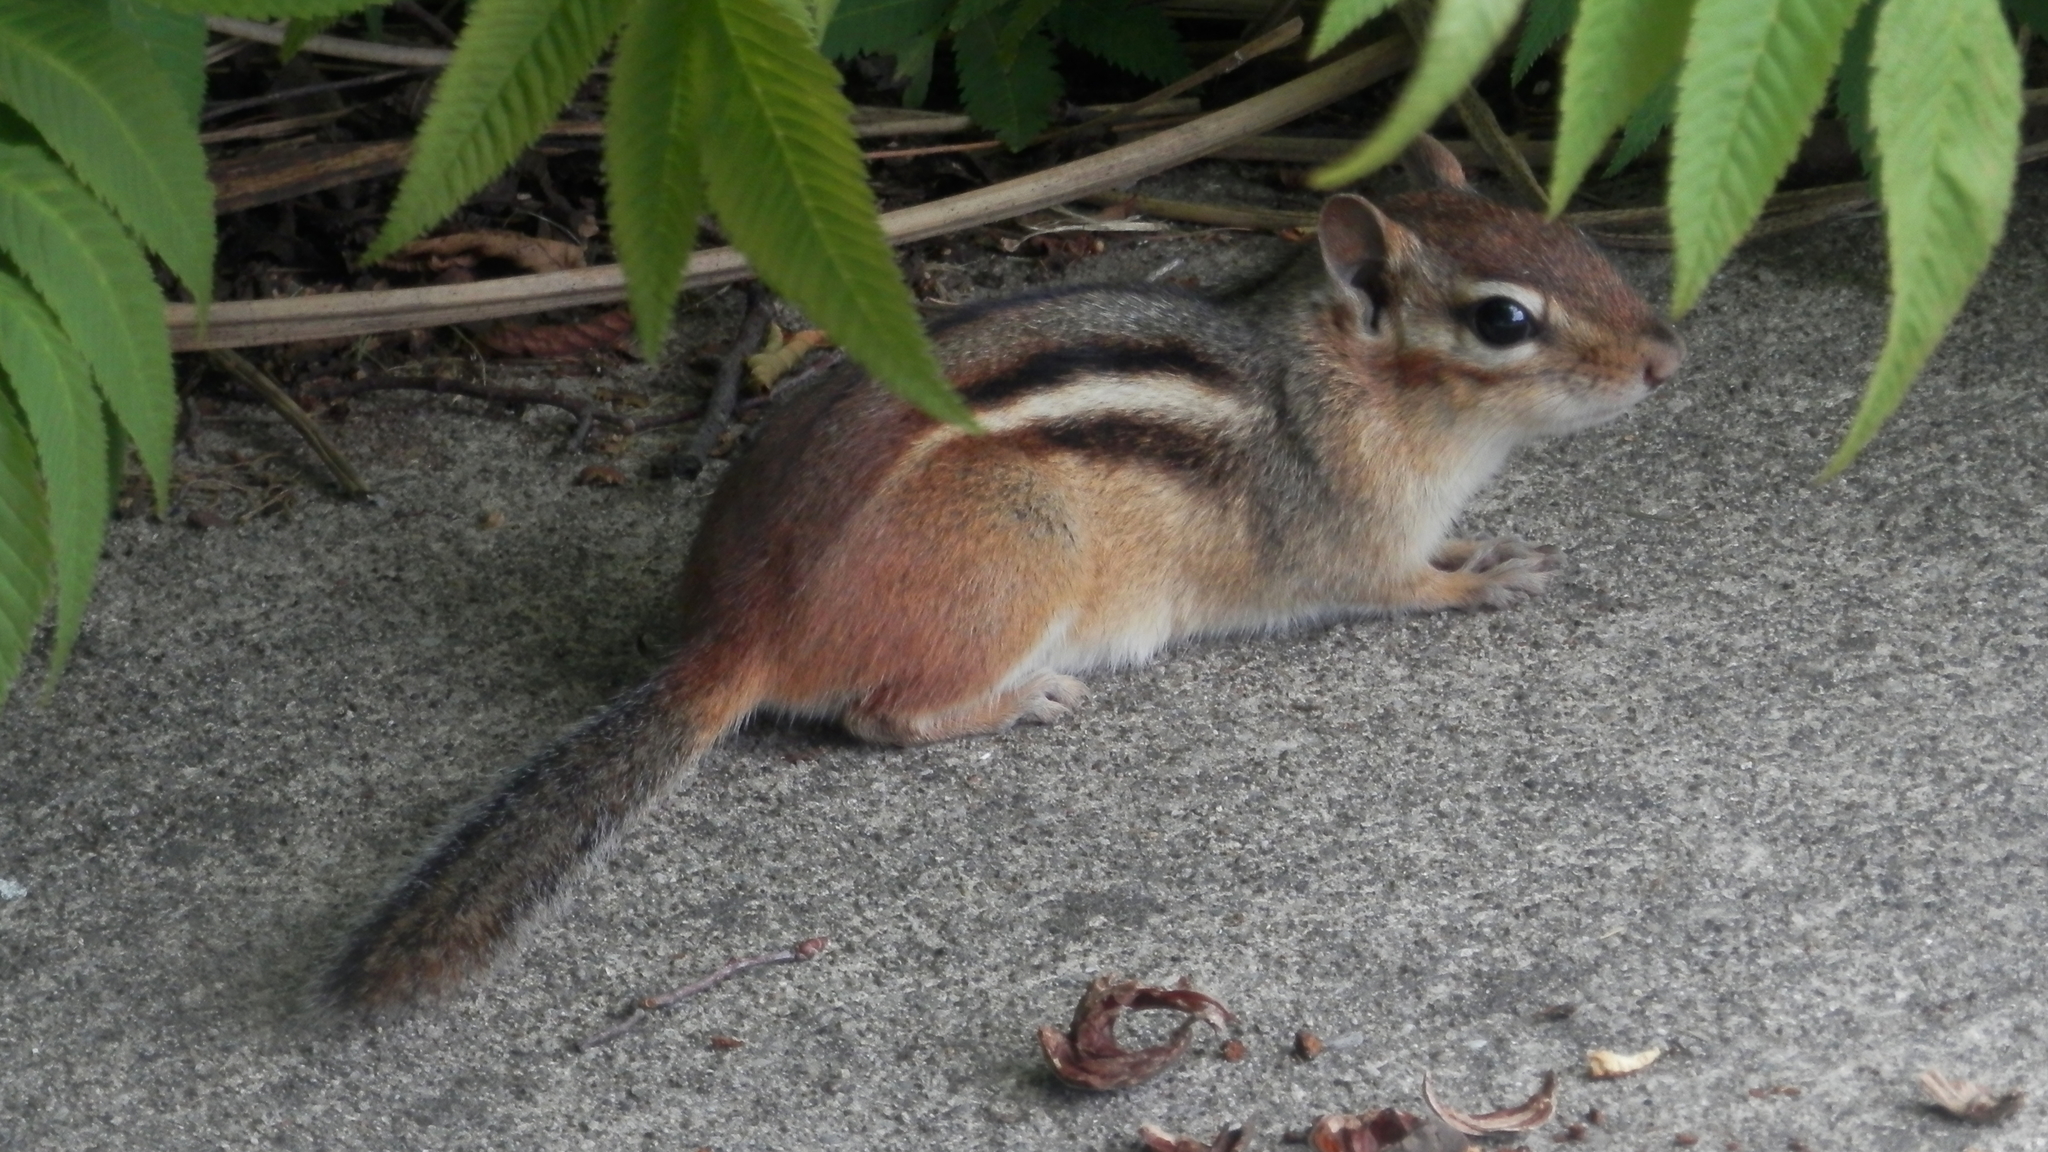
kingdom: Animalia
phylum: Chordata
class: Mammalia
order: Rodentia
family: Sciuridae
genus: Tamias
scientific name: Tamias striatus
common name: Eastern chipmunk
